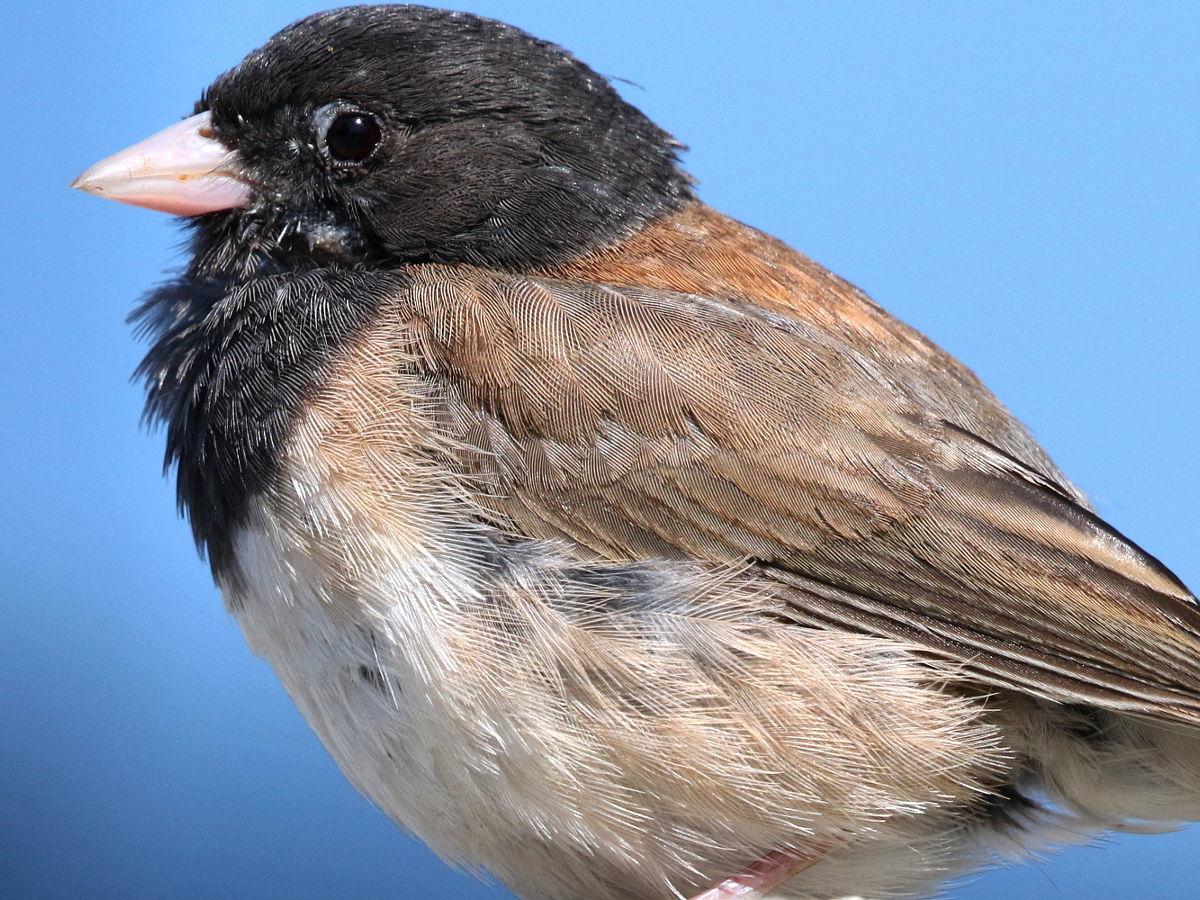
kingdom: Animalia
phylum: Chordata
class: Aves
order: Passeriformes
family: Passerellidae
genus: Junco
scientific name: Junco hyemalis
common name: Dark-eyed junco
